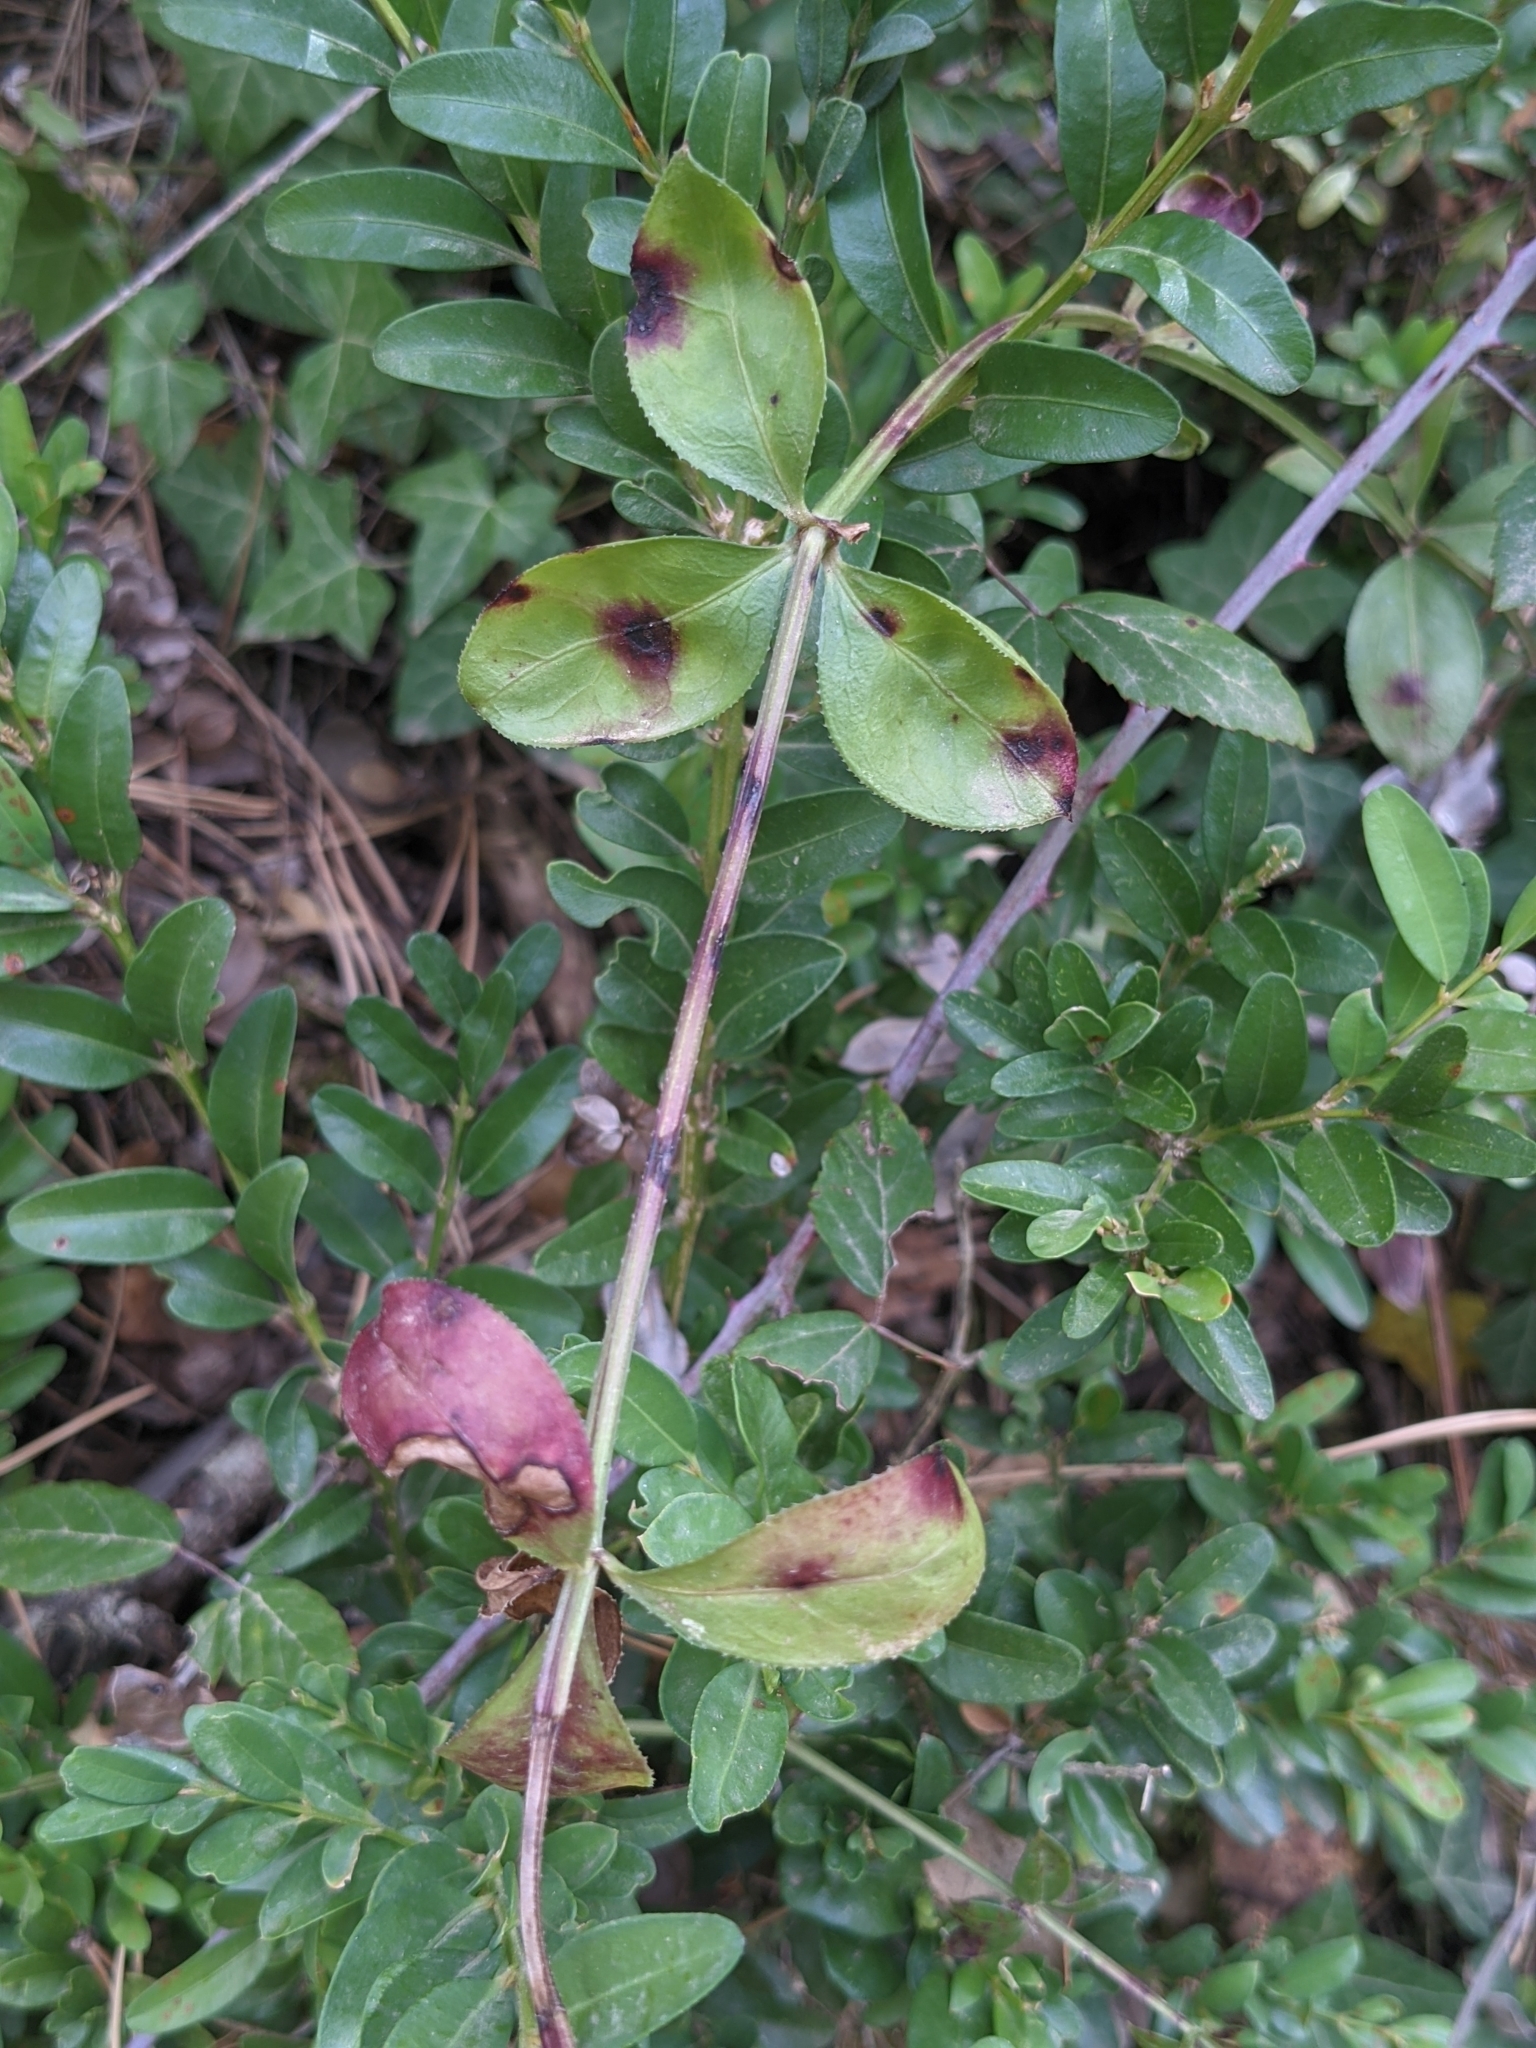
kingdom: Plantae
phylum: Tracheophyta
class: Magnoliopsida
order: Gentianales
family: Rubiaceae
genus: Rubia
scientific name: Rubia peregrina
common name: Wild madder
